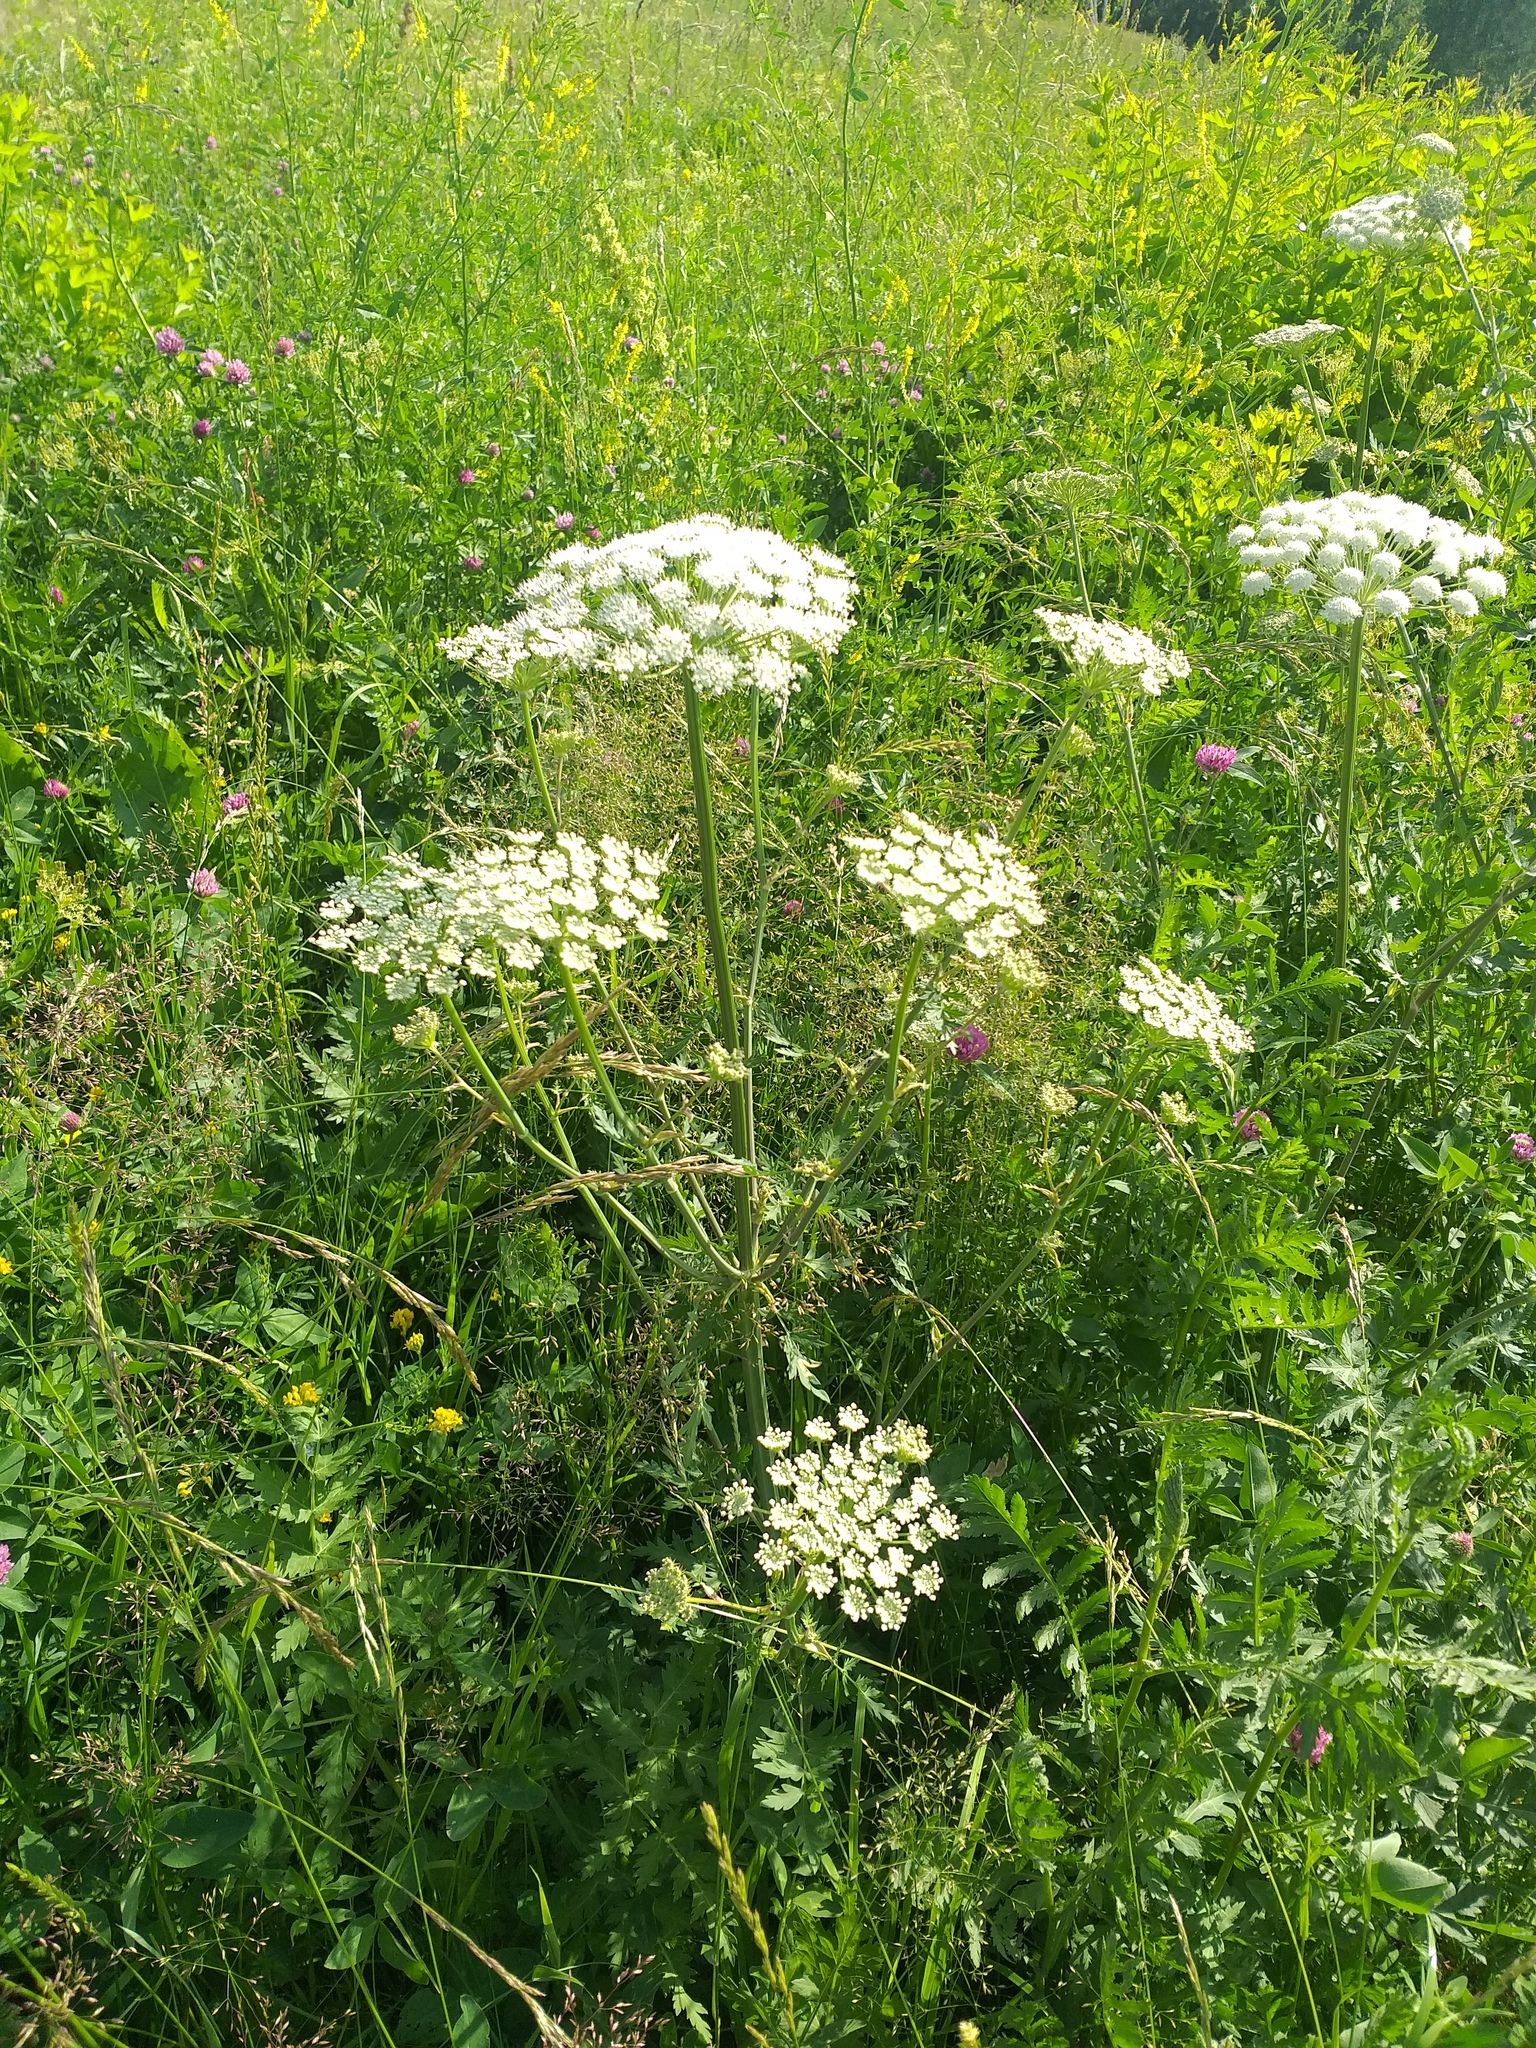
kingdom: Plantae
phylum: Tracheophyta
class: Magnoliopsida
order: Apiales
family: Apiaceae
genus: Seseli
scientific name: Seseli libanotis
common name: Mooncarrot
